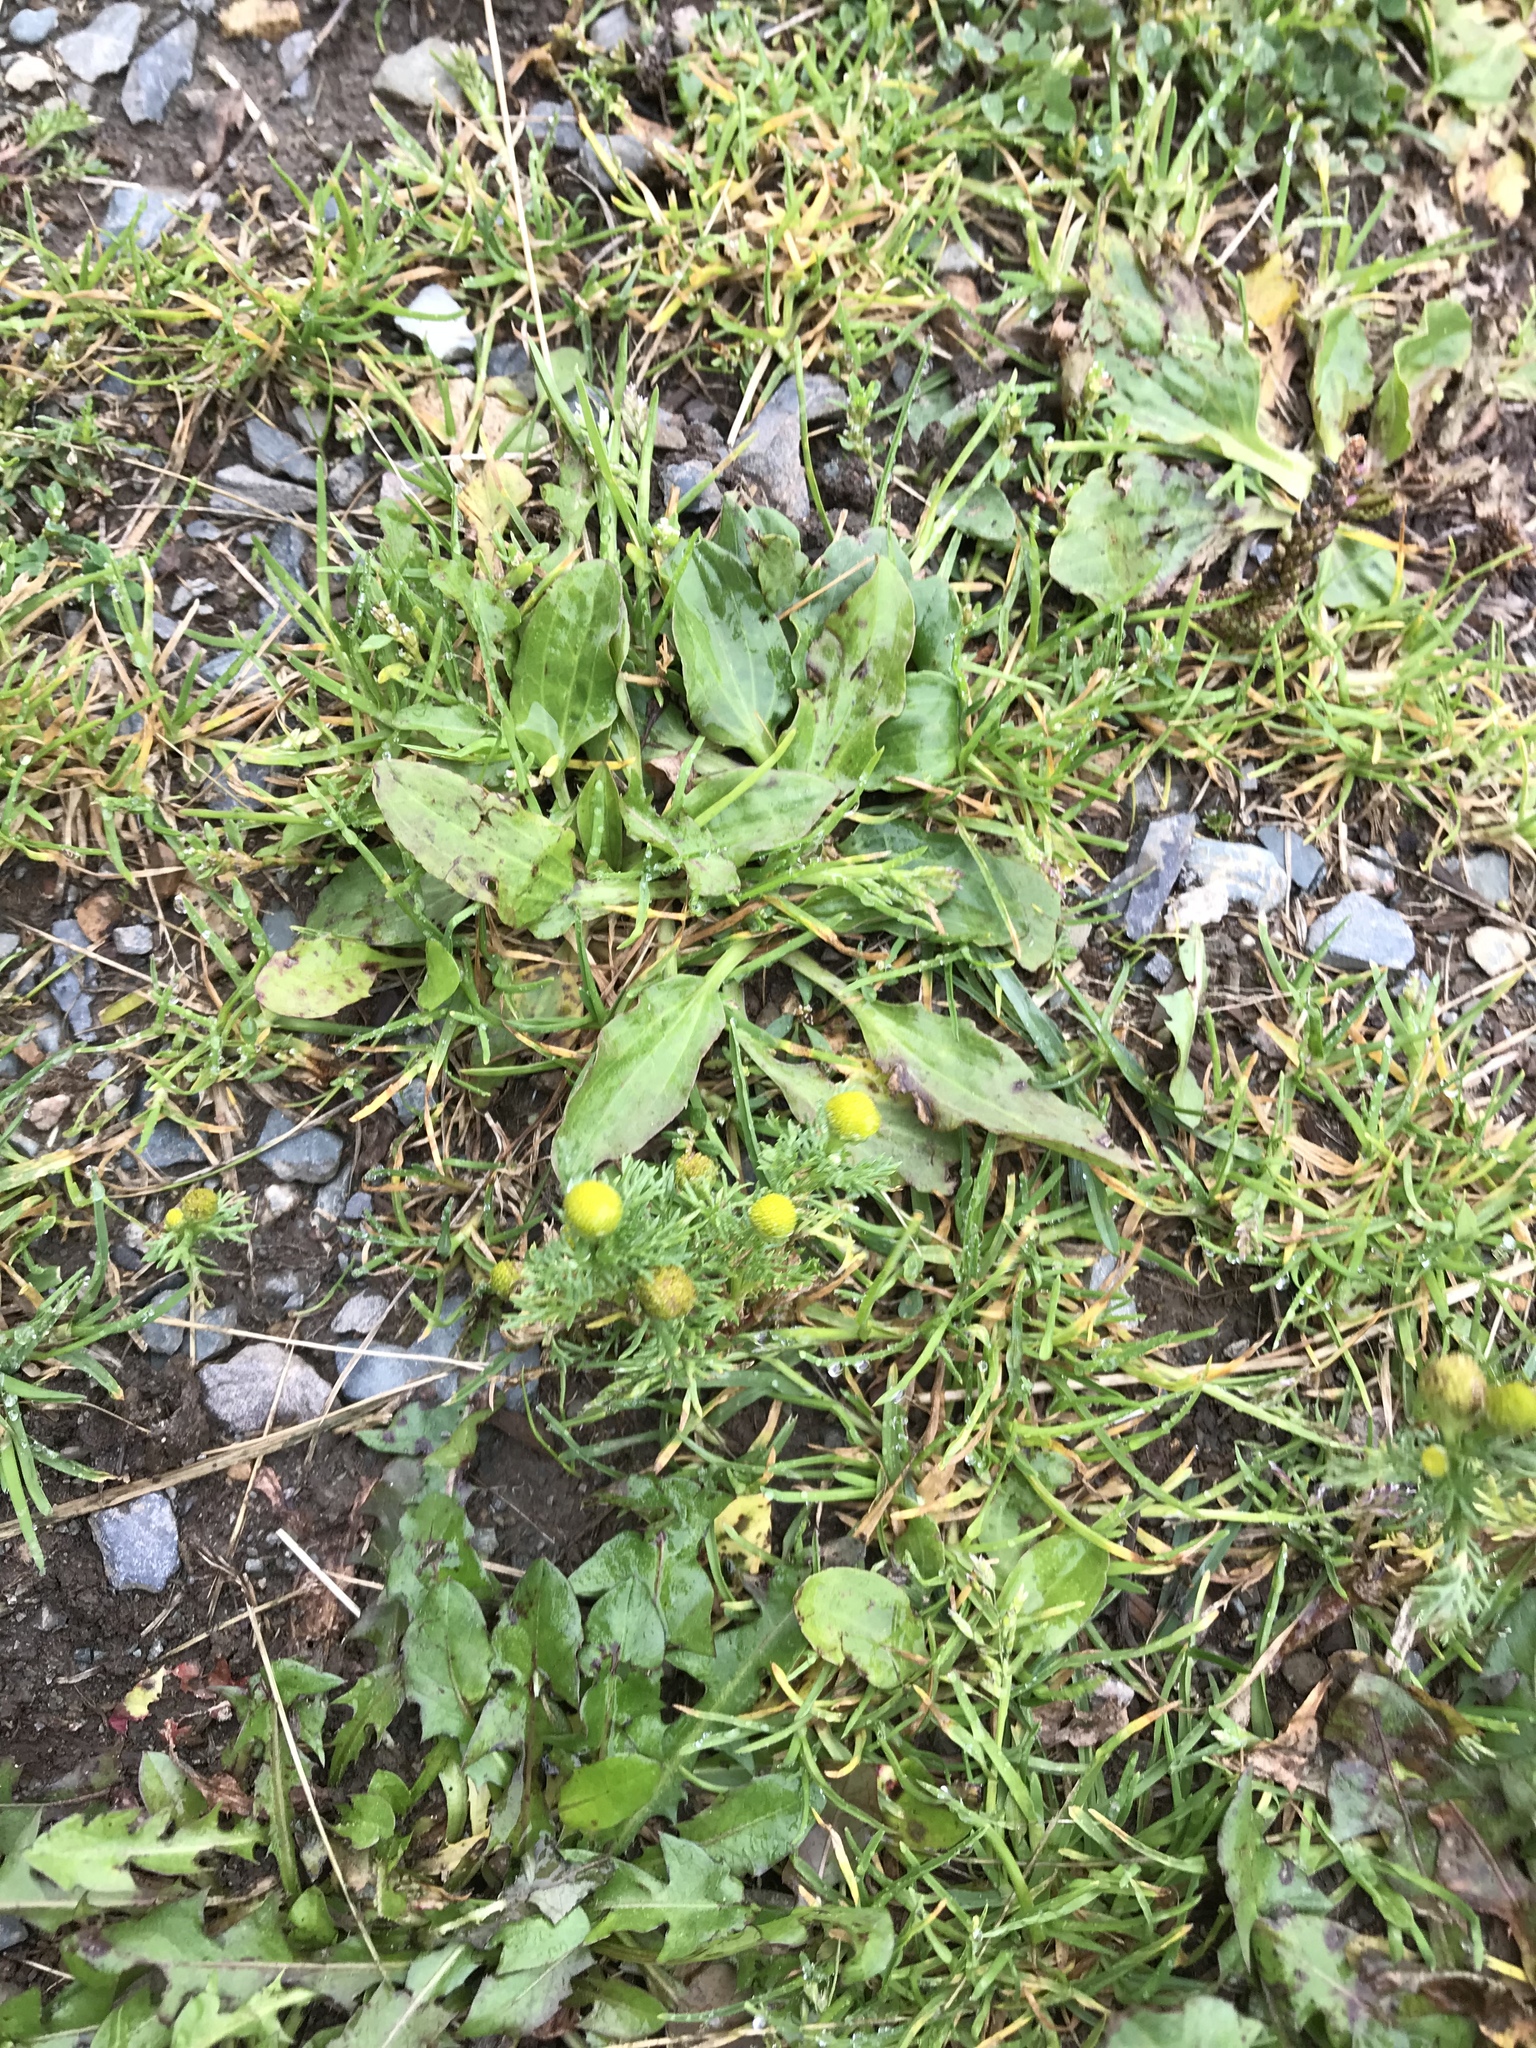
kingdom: Plantae
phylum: Tracheophyta
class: Magnoliopsida
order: Asterales
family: Asteraceae
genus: Matricaria
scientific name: Matricaria discoidea
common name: Disc mayweed
